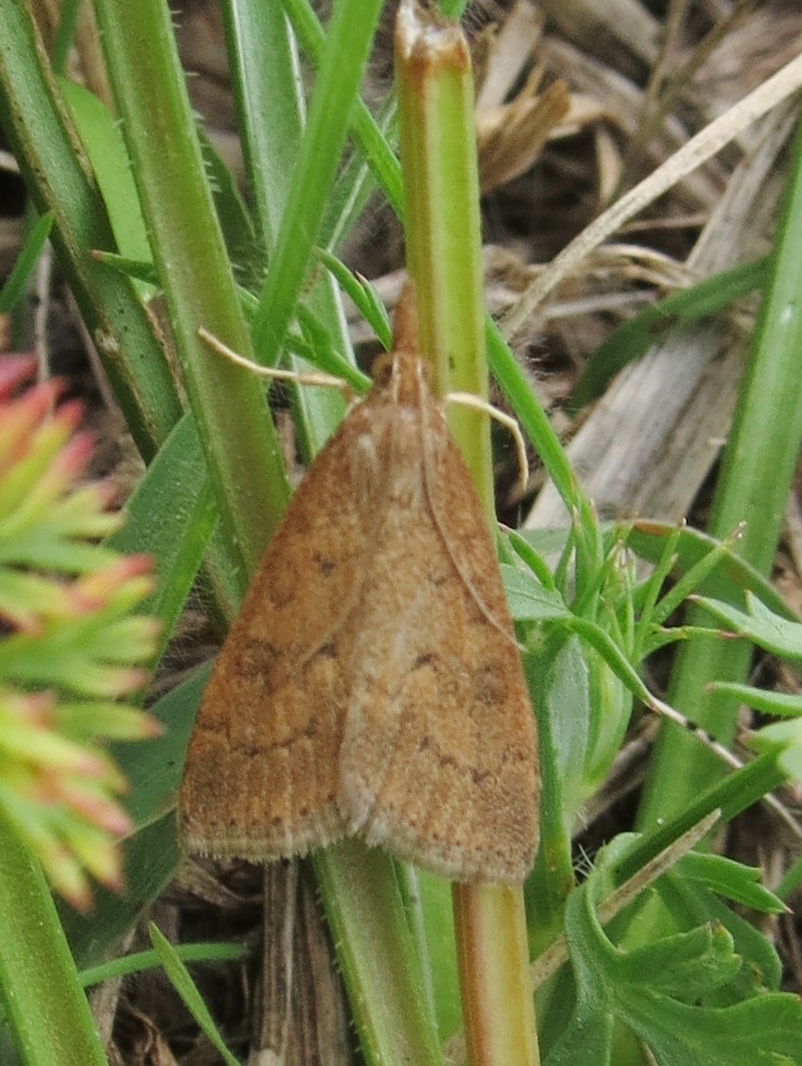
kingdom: Animalia
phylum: Arthropoda
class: Insecta
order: Lepidoptera
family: Crambidae
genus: Udea
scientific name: Udea rubigalis
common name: Celery leaftier moth
